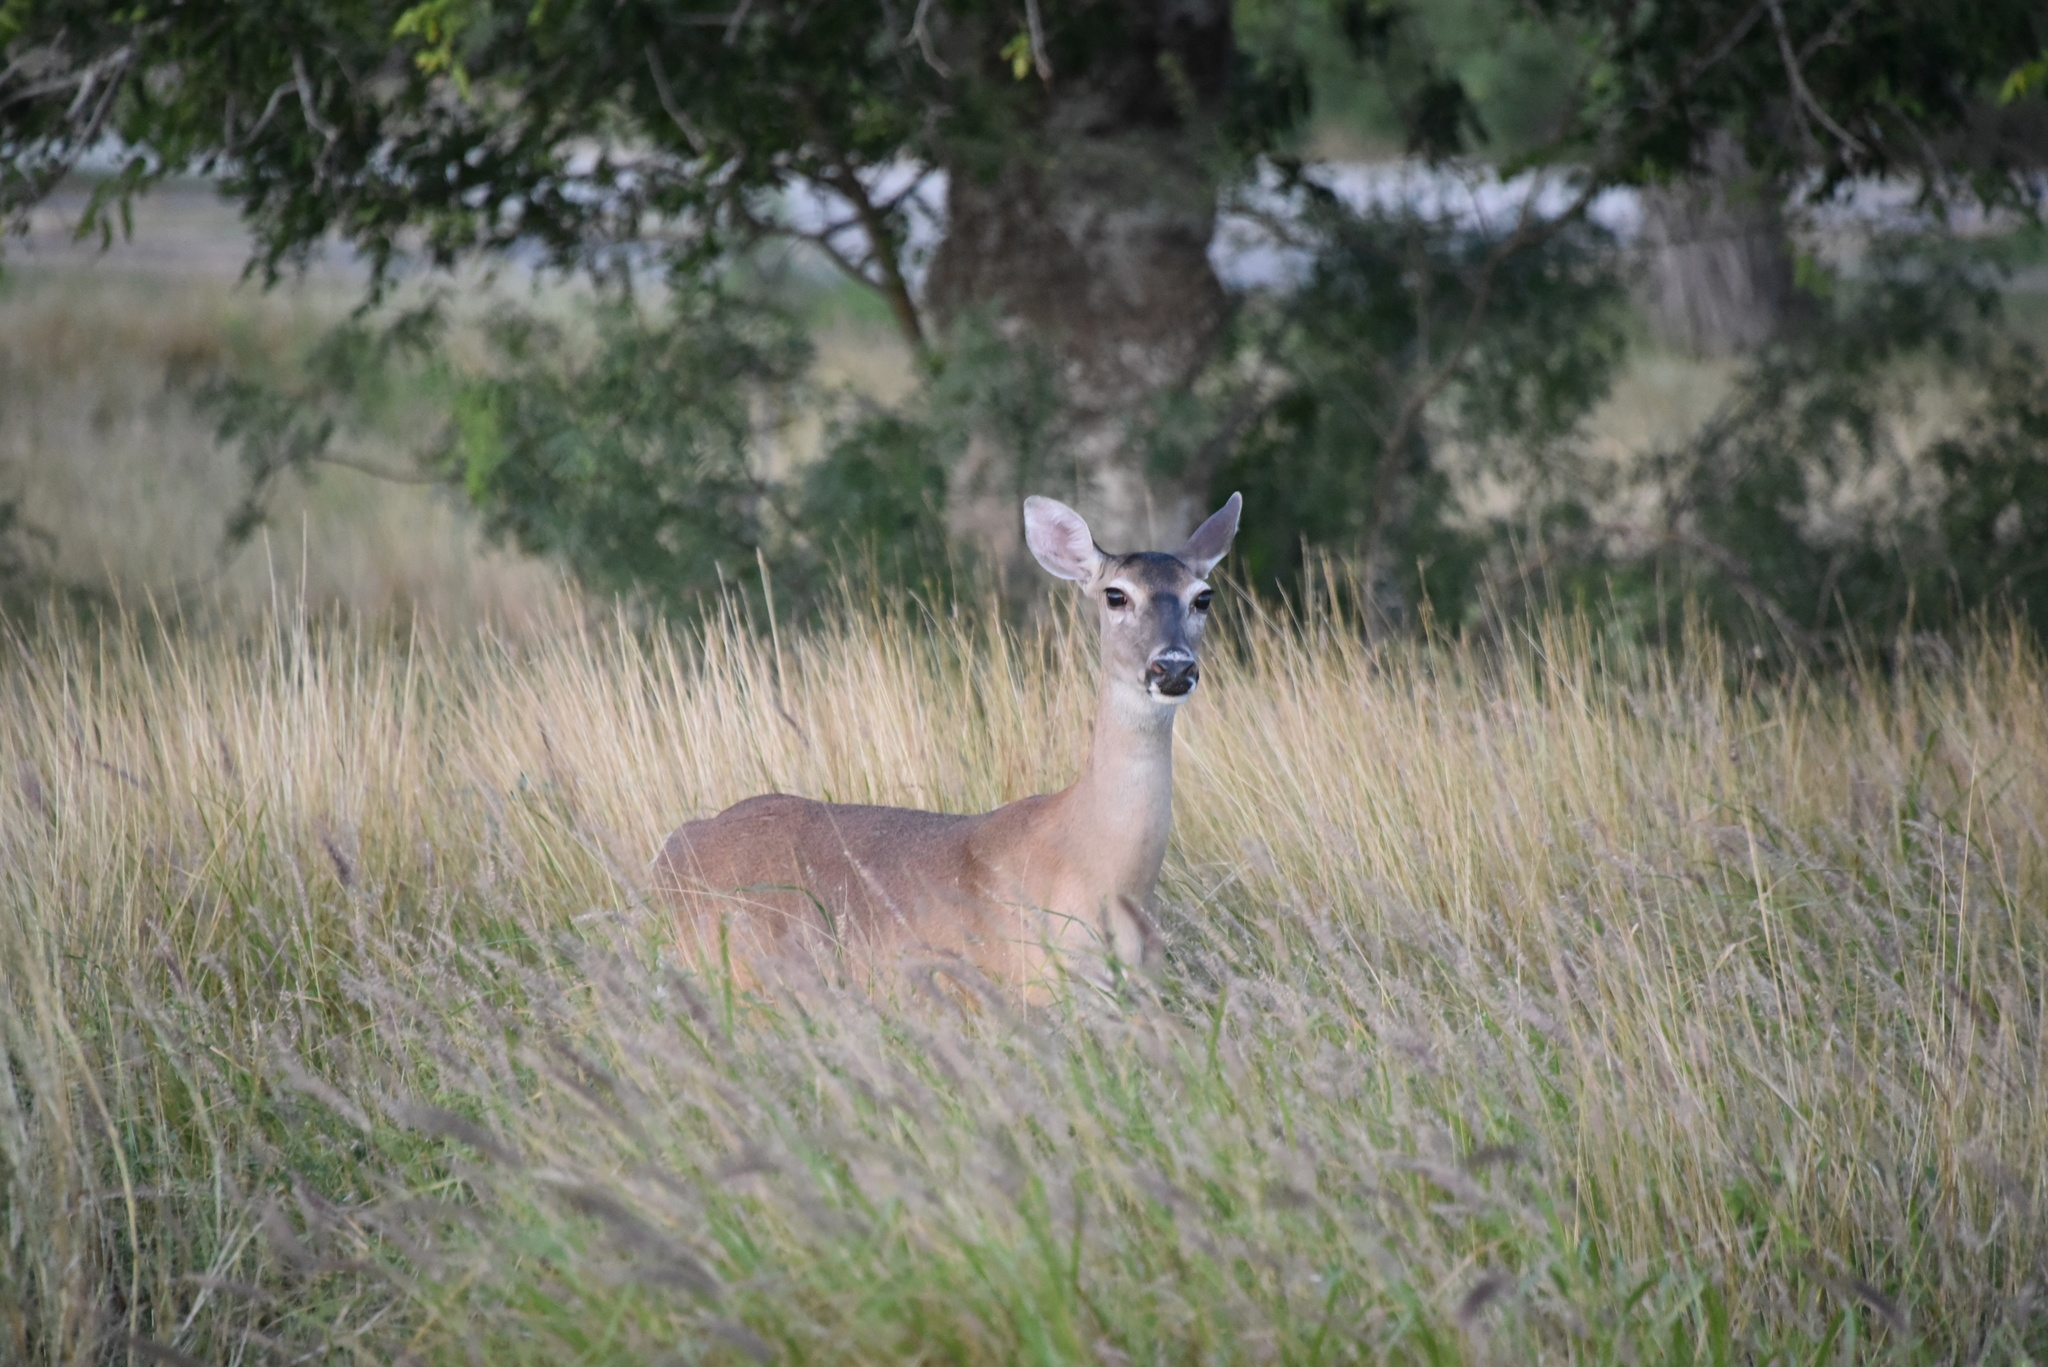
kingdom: Animalia
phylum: Chordata
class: Mammalia
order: Artiodactyla
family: Cervidae
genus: Odocoileus
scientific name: Odocoileus virginianus
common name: White-tailed deer
